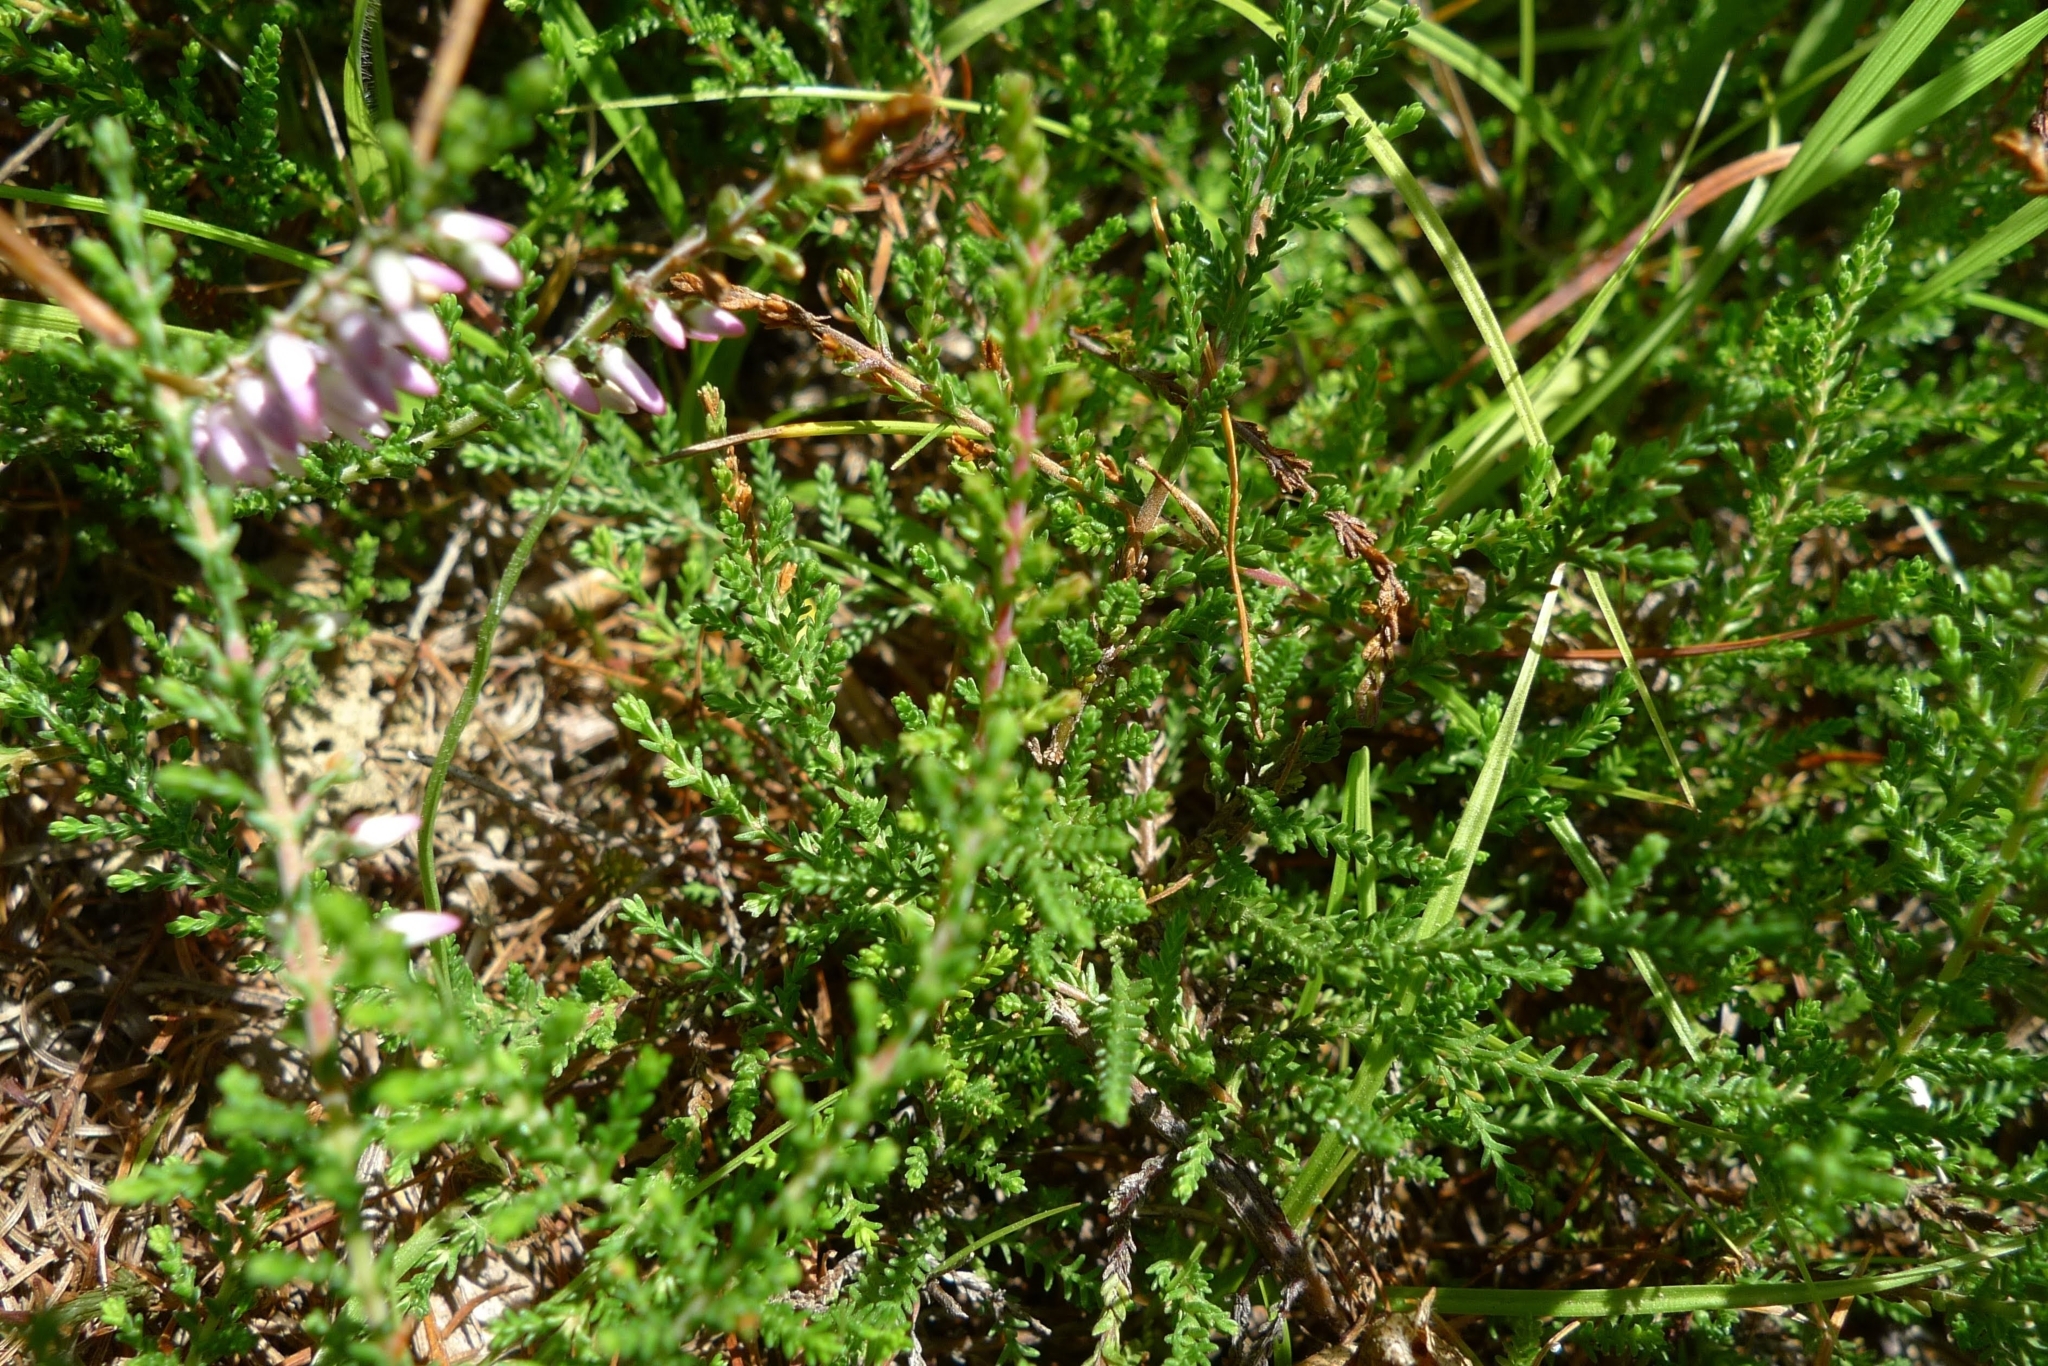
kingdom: Plantae
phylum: Tracheophyta
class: Magnoliopsida
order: Ericales
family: Ericaceae
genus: Calluna
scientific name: Calluna vulgaris
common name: Heather
